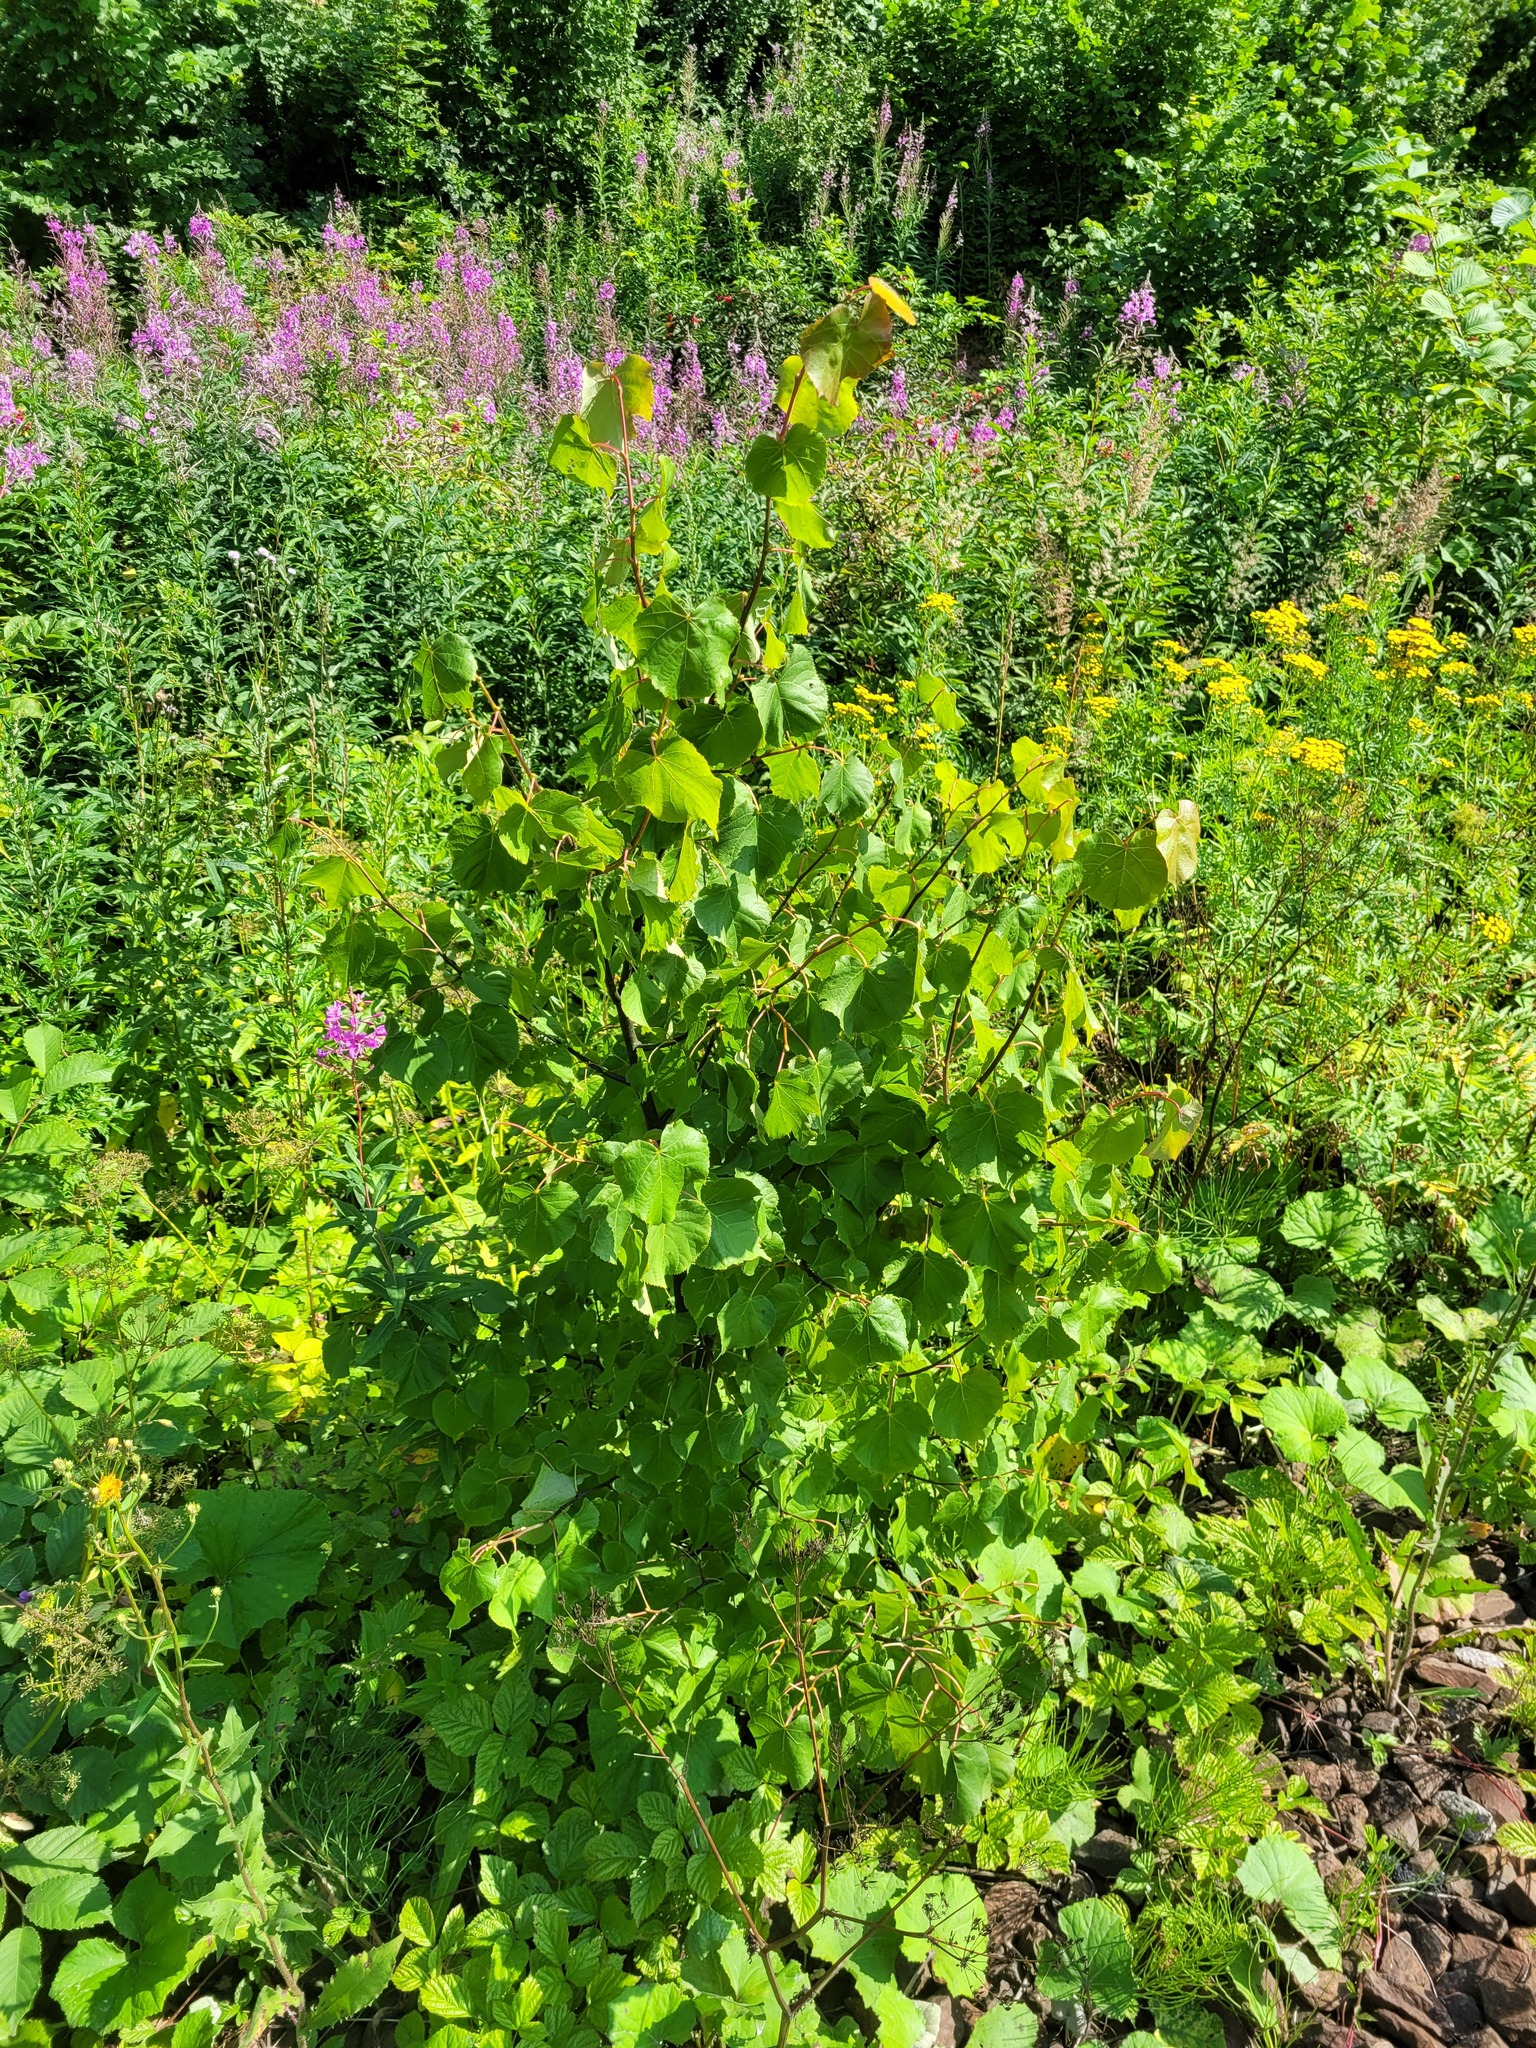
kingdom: Plantae
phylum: Tracheophyta
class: Magnoliopsida
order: Malvales
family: Malvaceae
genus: Tilia
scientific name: Tilia cordata
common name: Small-leaved lime
